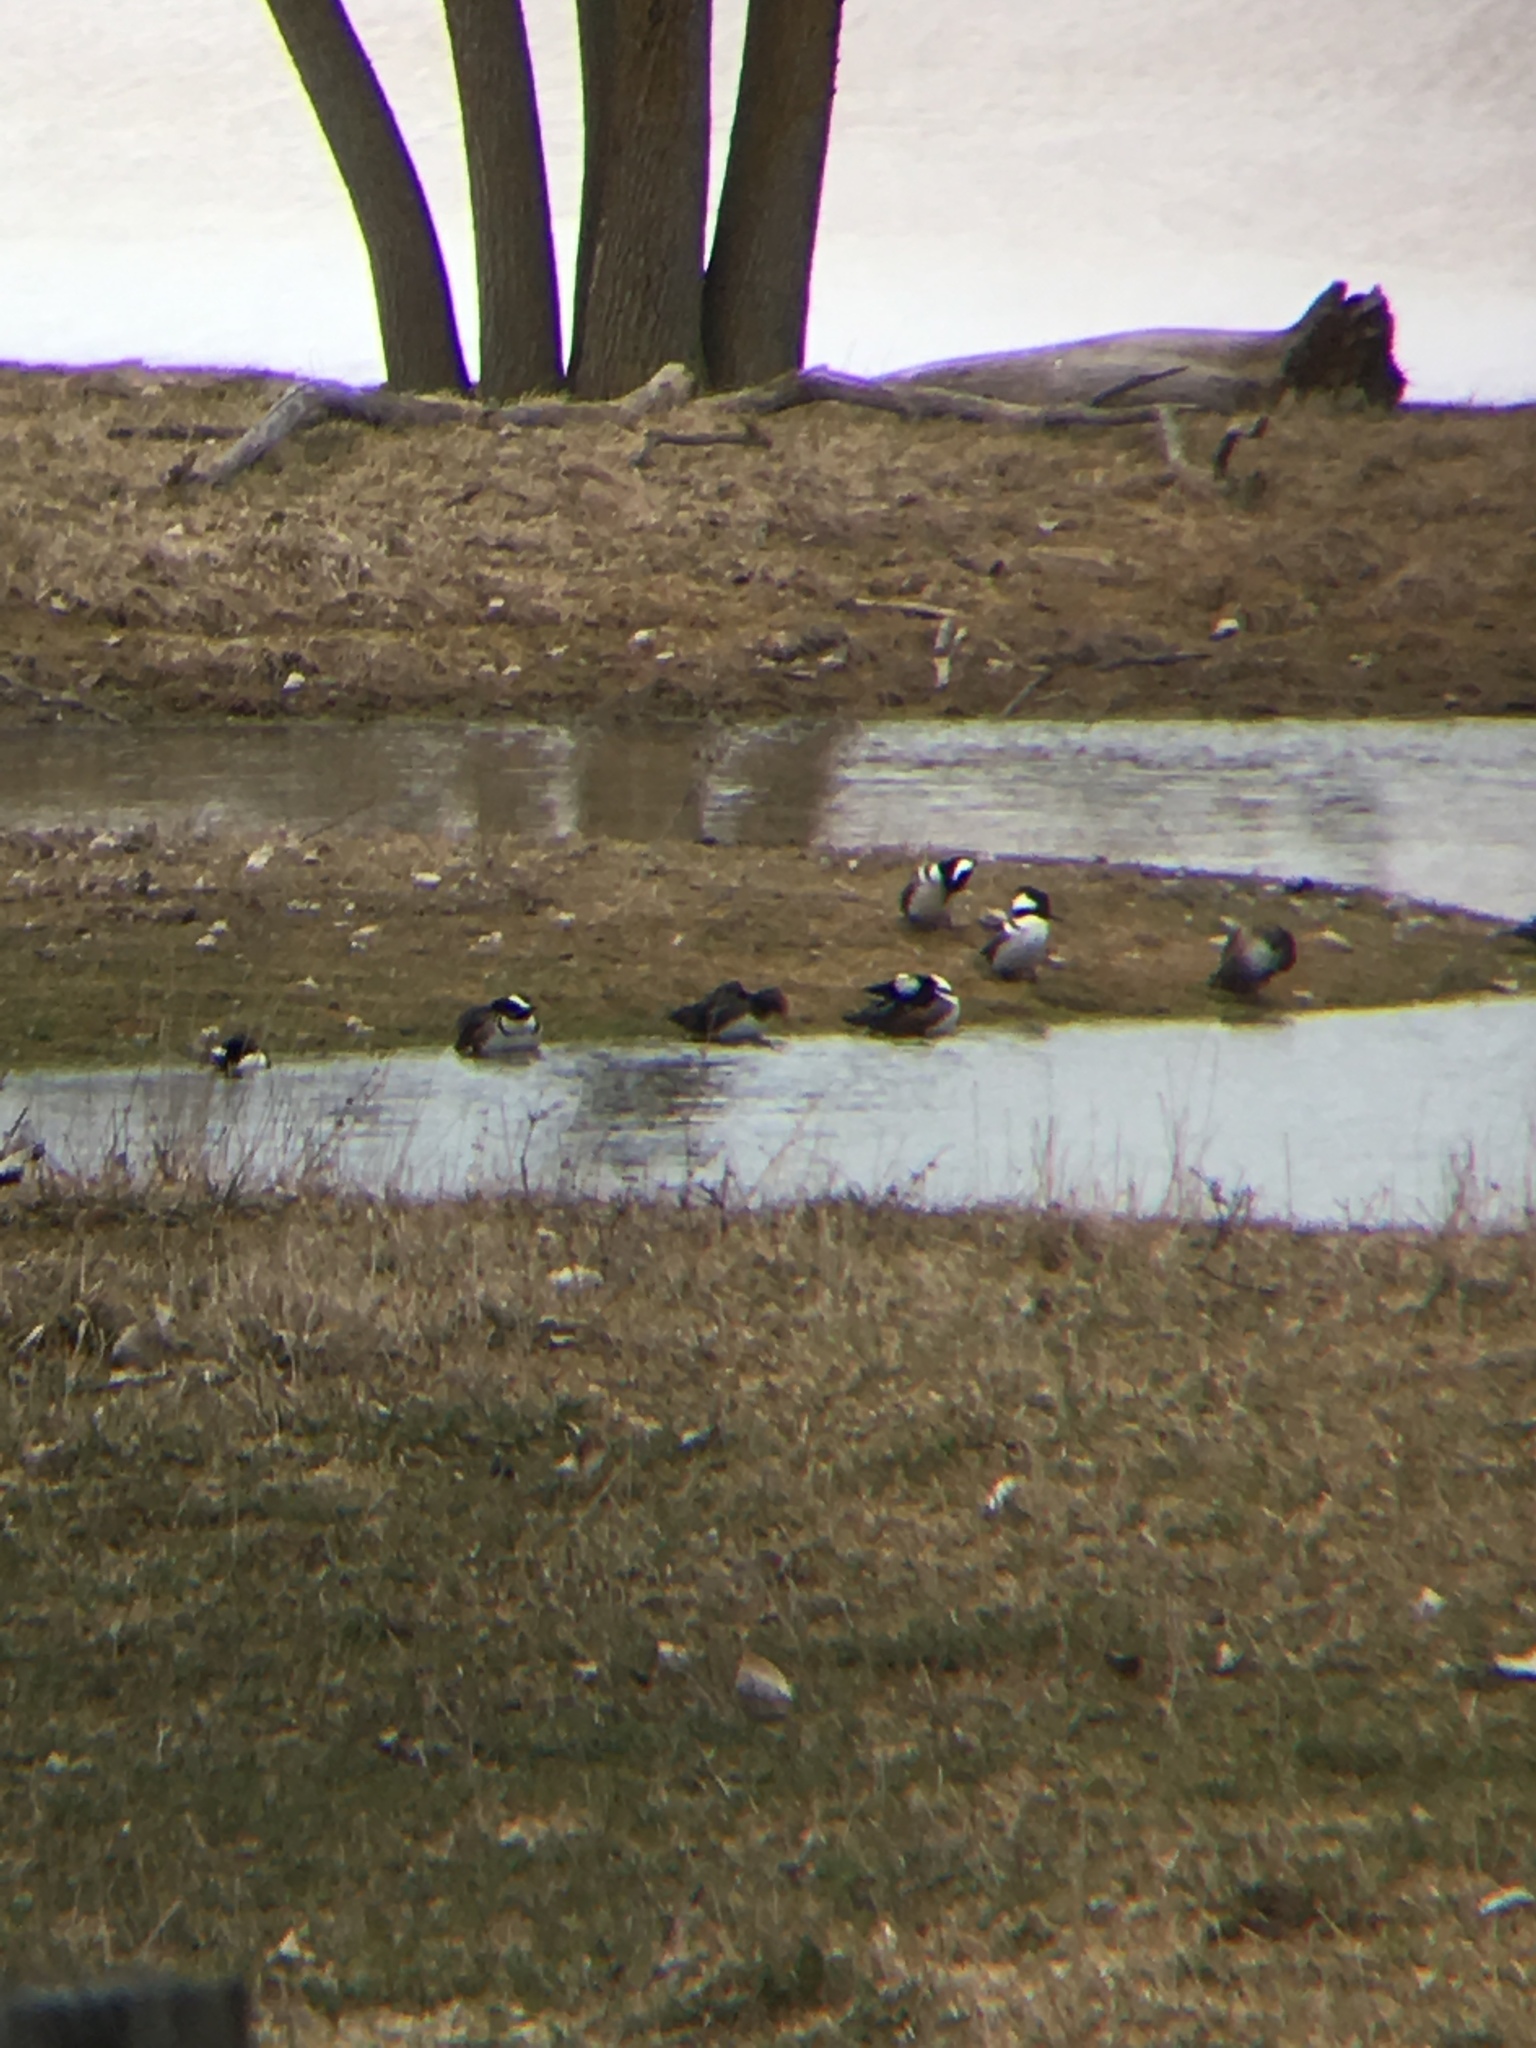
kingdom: Animalia
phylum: Chordata
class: Aves
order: Anseriformes
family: Anatidae
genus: Lophodytes
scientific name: Lophodytes cucullatus
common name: Hooded merganser
